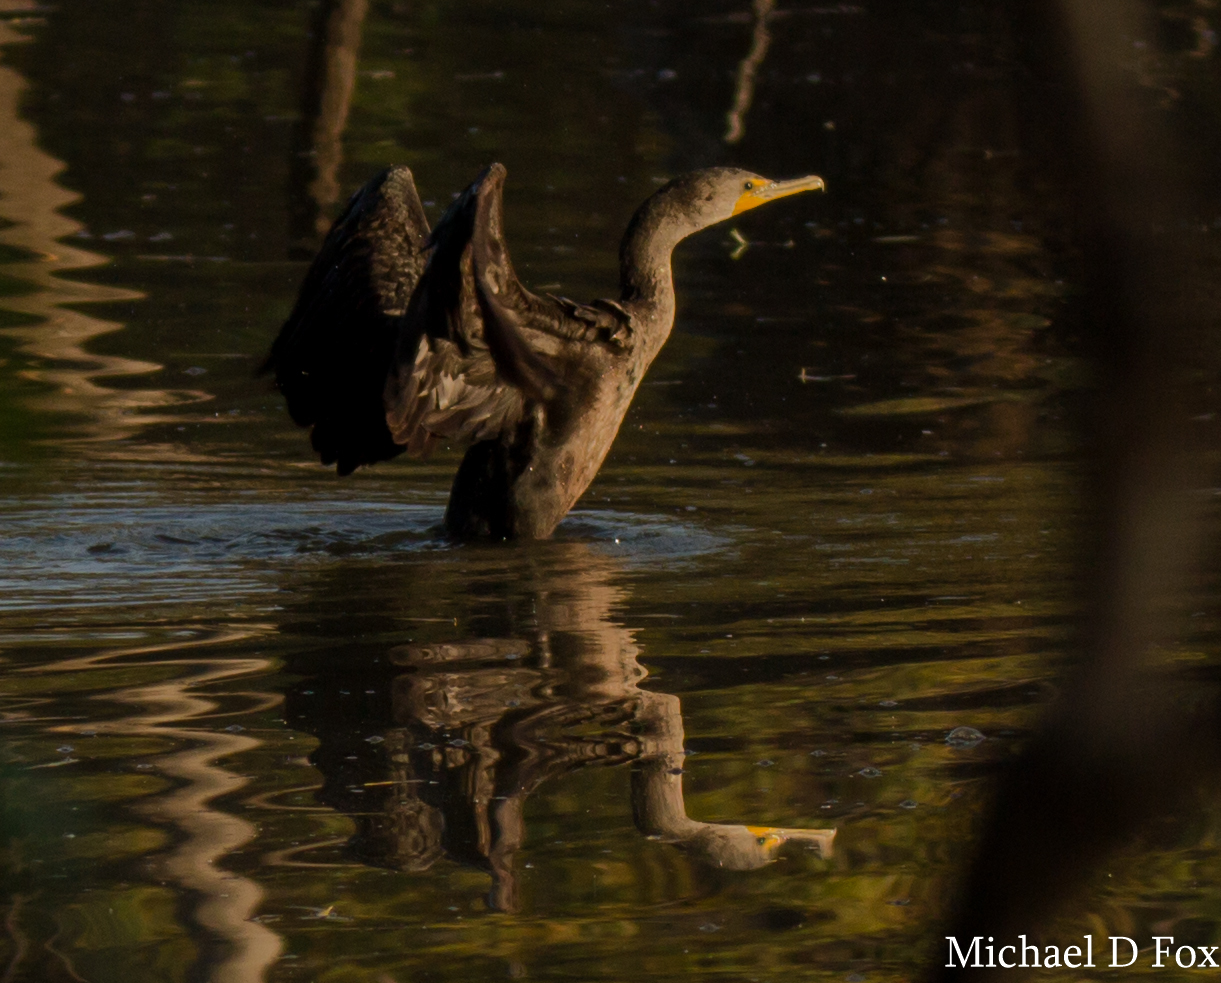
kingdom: Animalia
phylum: Chordata
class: Aves
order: Suliformes
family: Phalacrocoracidae
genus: Phalacrocorax
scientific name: Phalacrocorax auritus
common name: Double-crested cormorant
